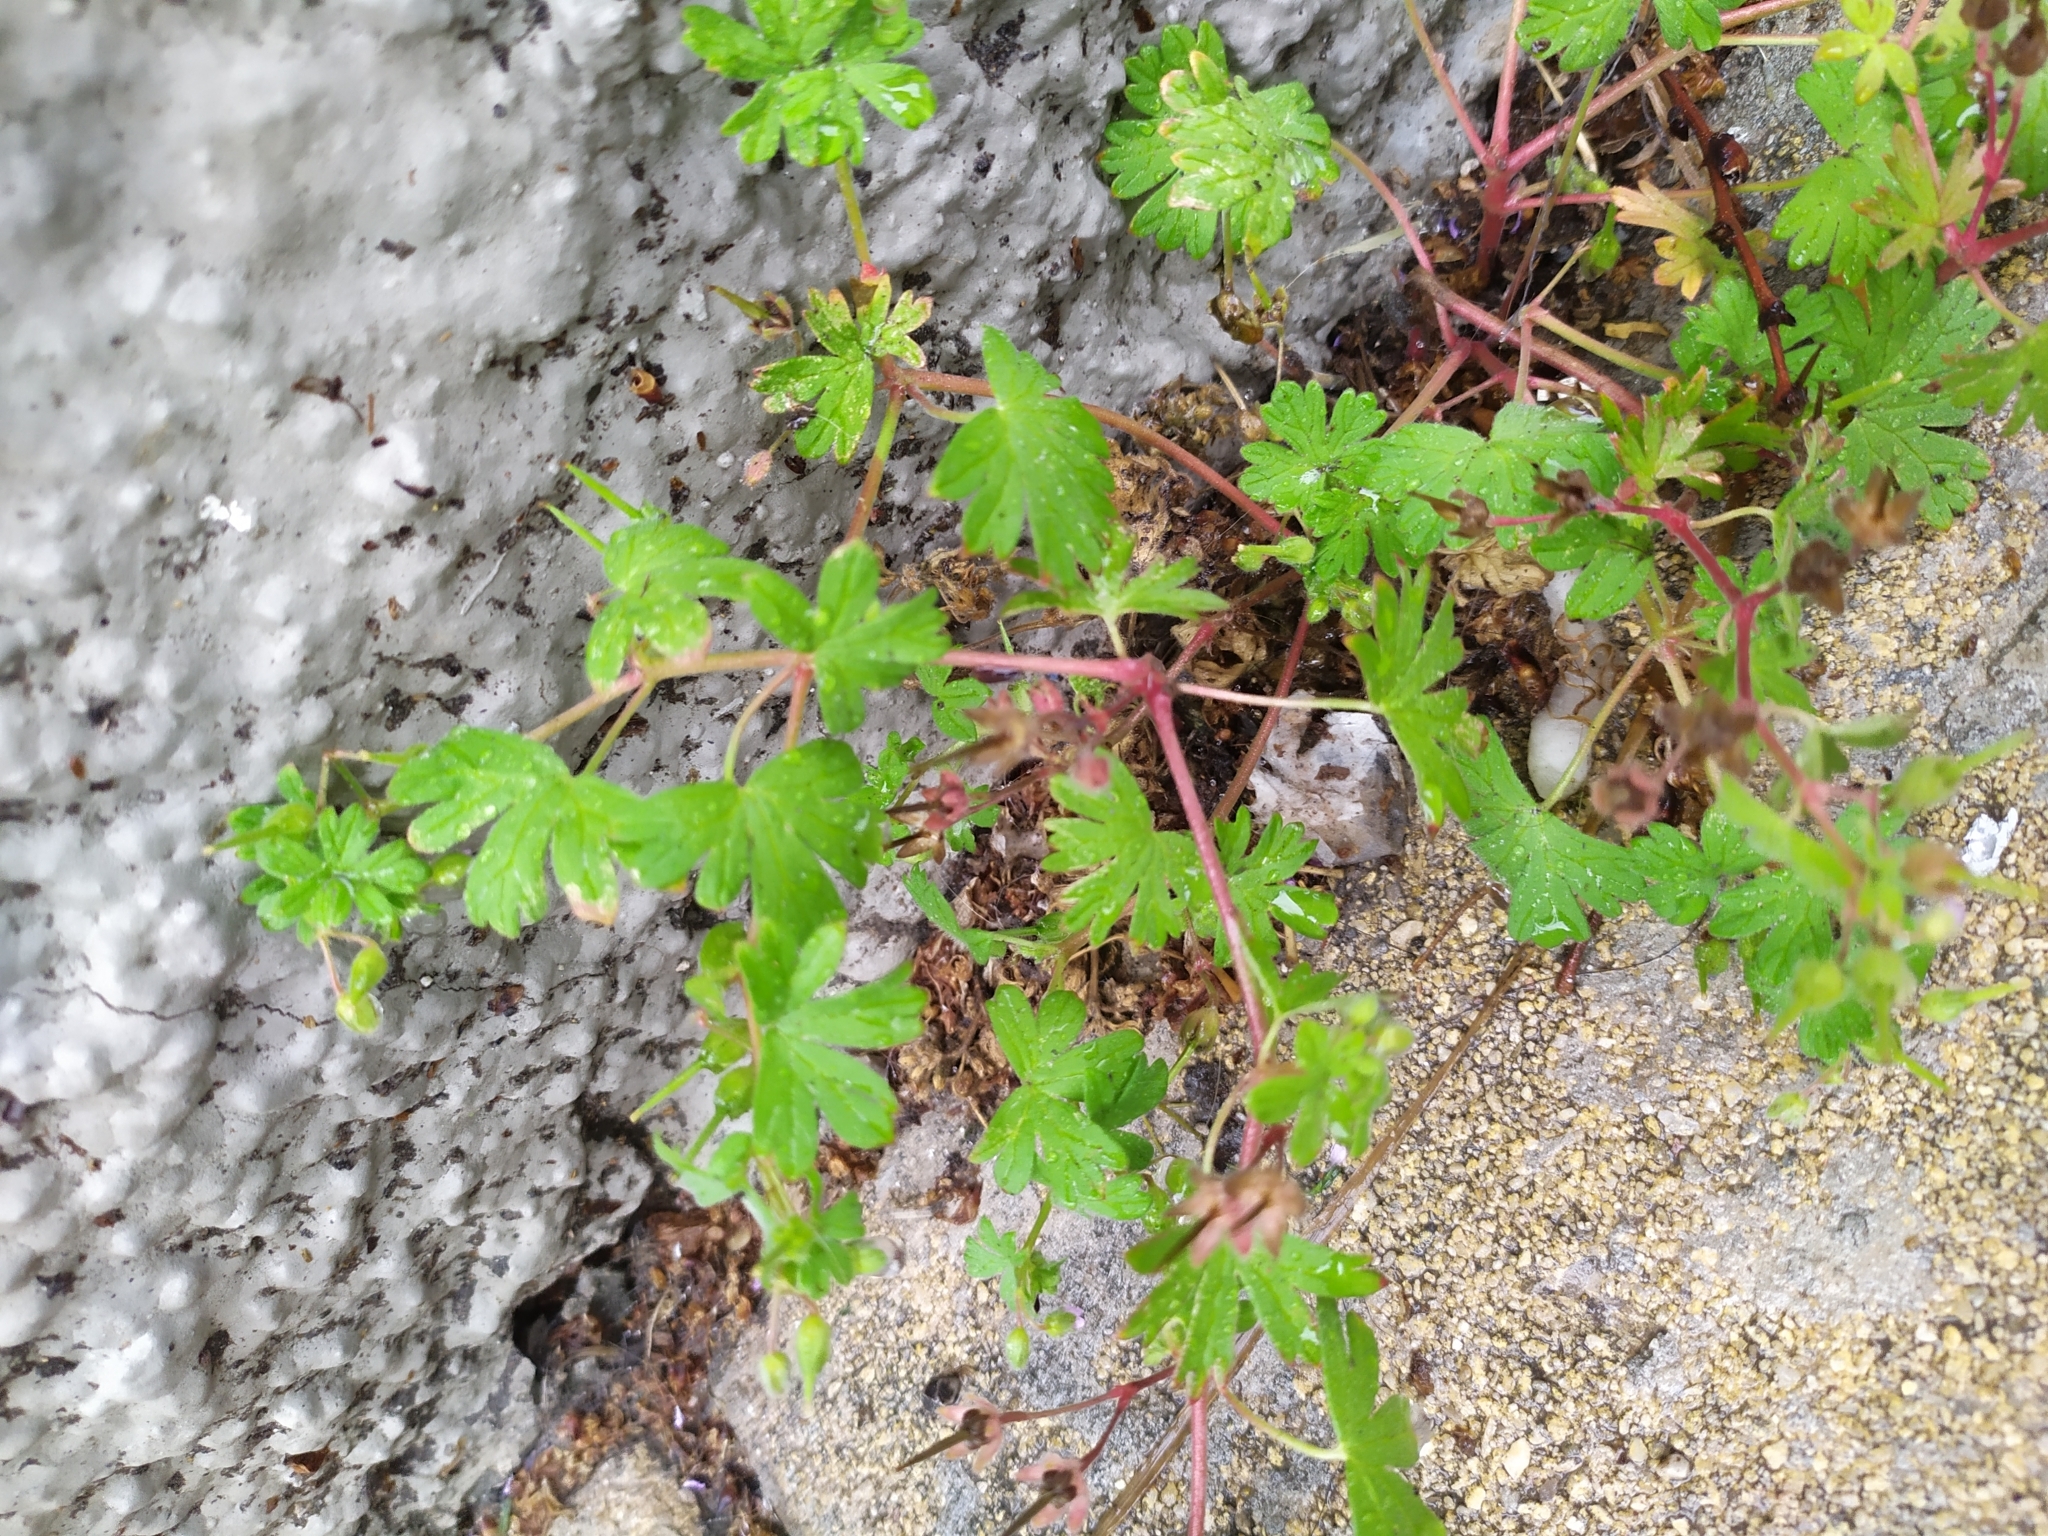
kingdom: Plantae
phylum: Tracheophyta
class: Magnoliopsida
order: Geraniales
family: Geraniaceae
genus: Geranium
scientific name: Geranium pusillum
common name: Small geranium
